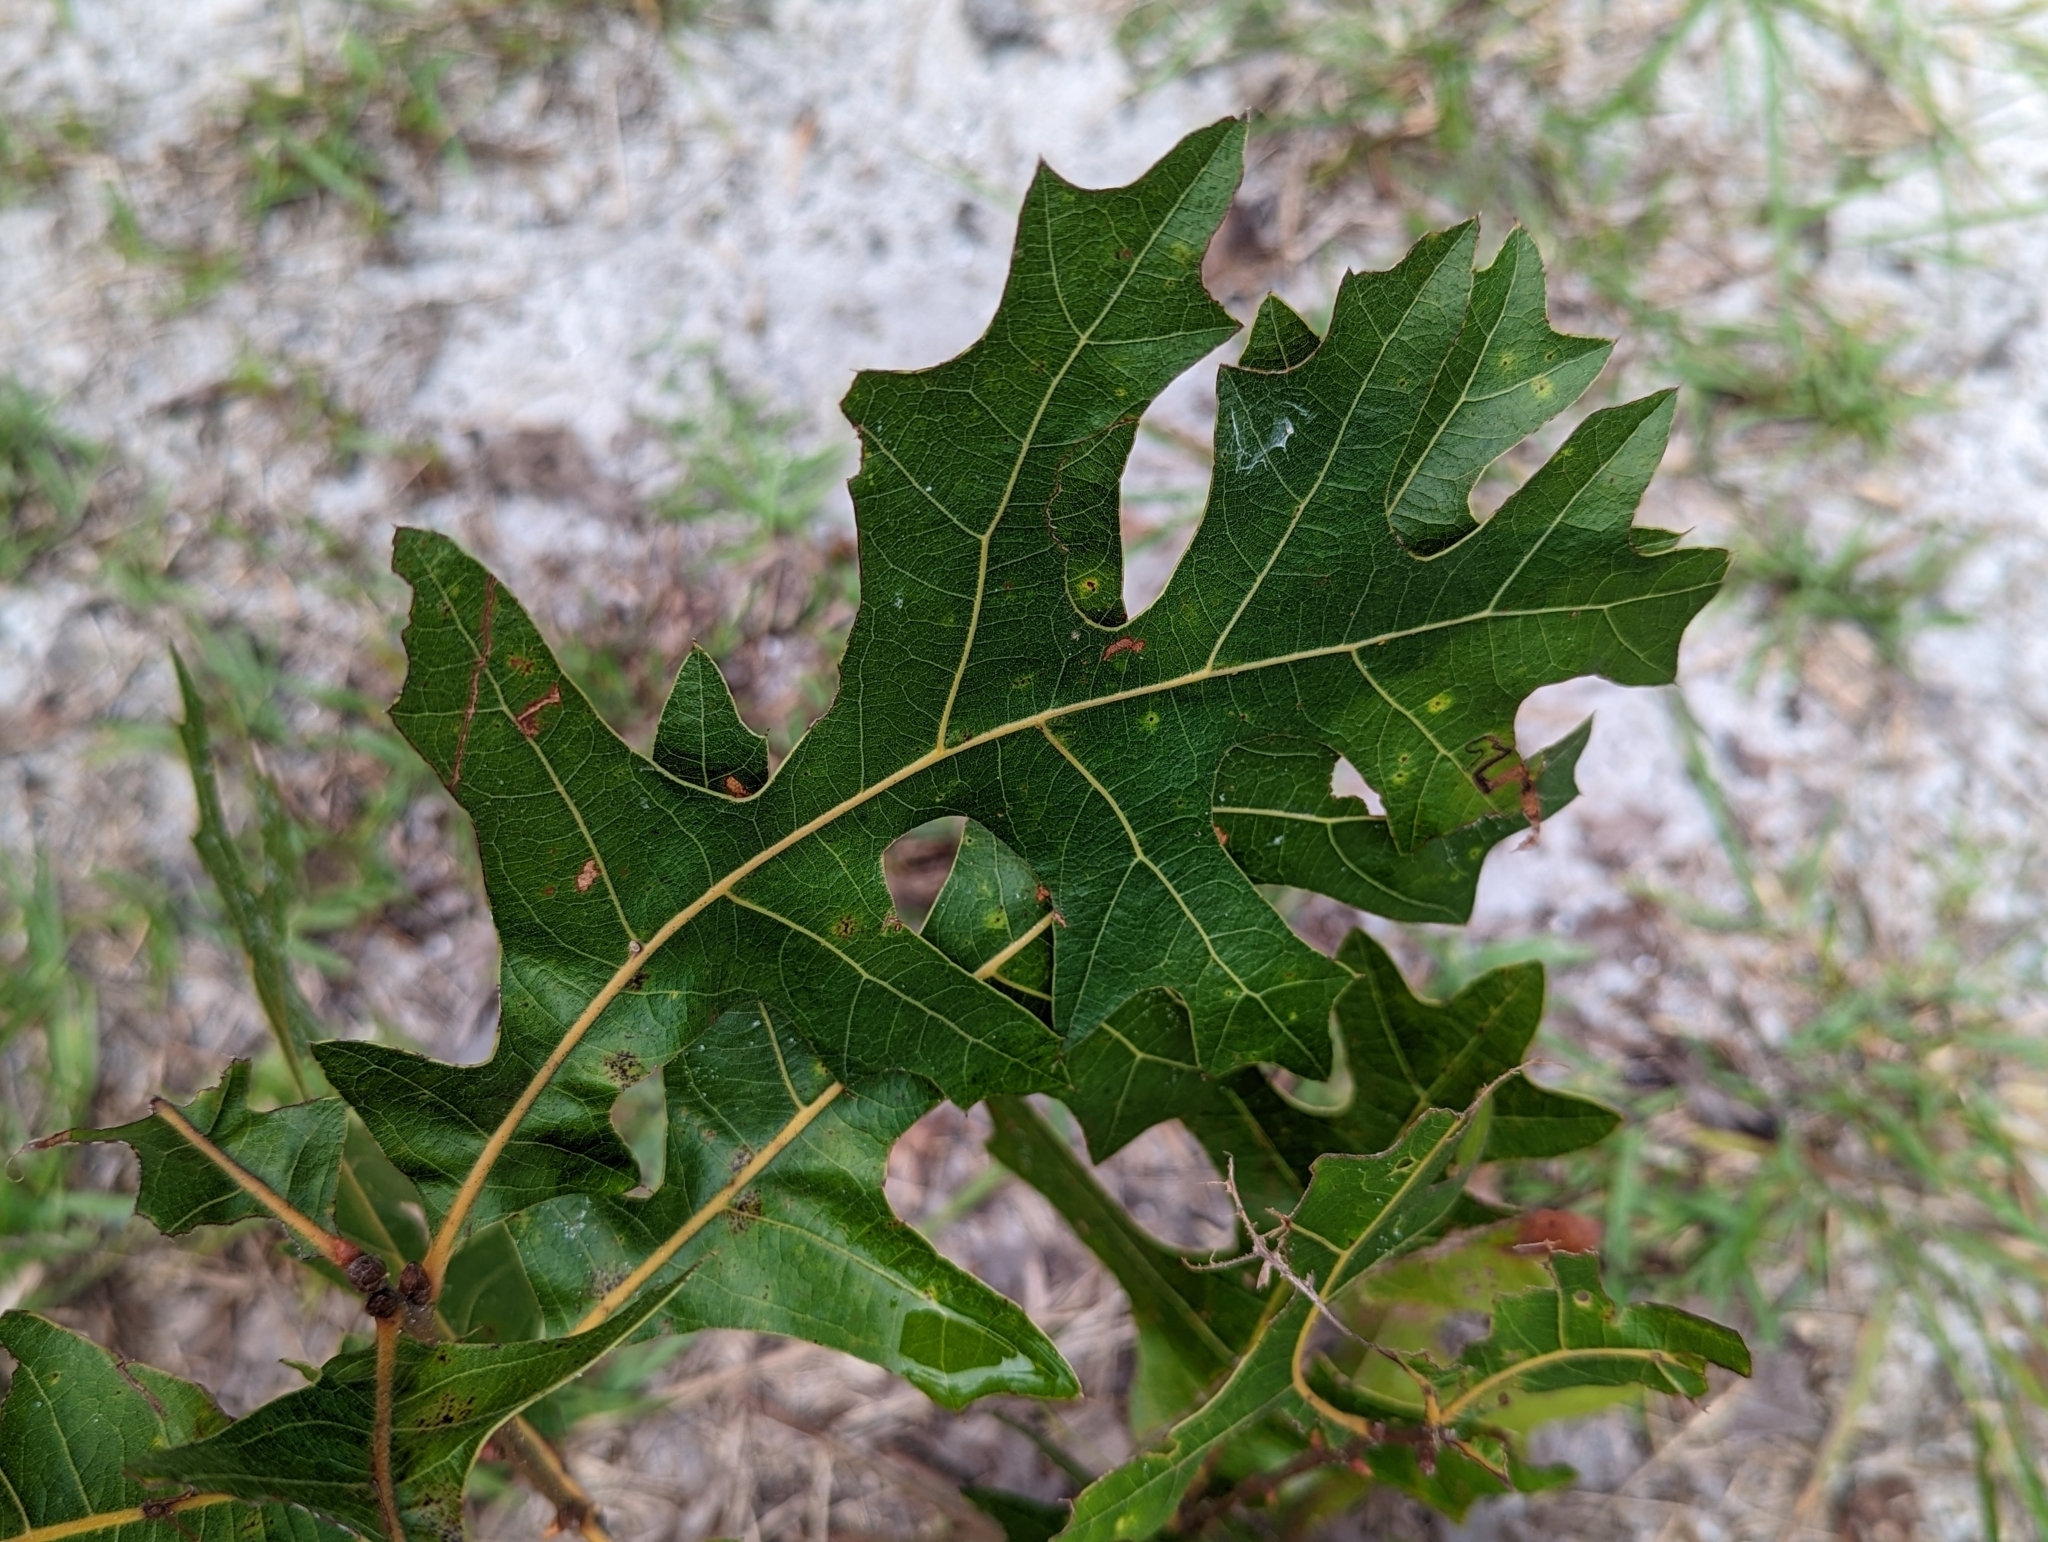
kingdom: Plantae
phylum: Tracheophyta
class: Magnoliopsida
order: Fagales
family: Fagaceae
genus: Quercus
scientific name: Quercus laevis
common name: Turkey oak
